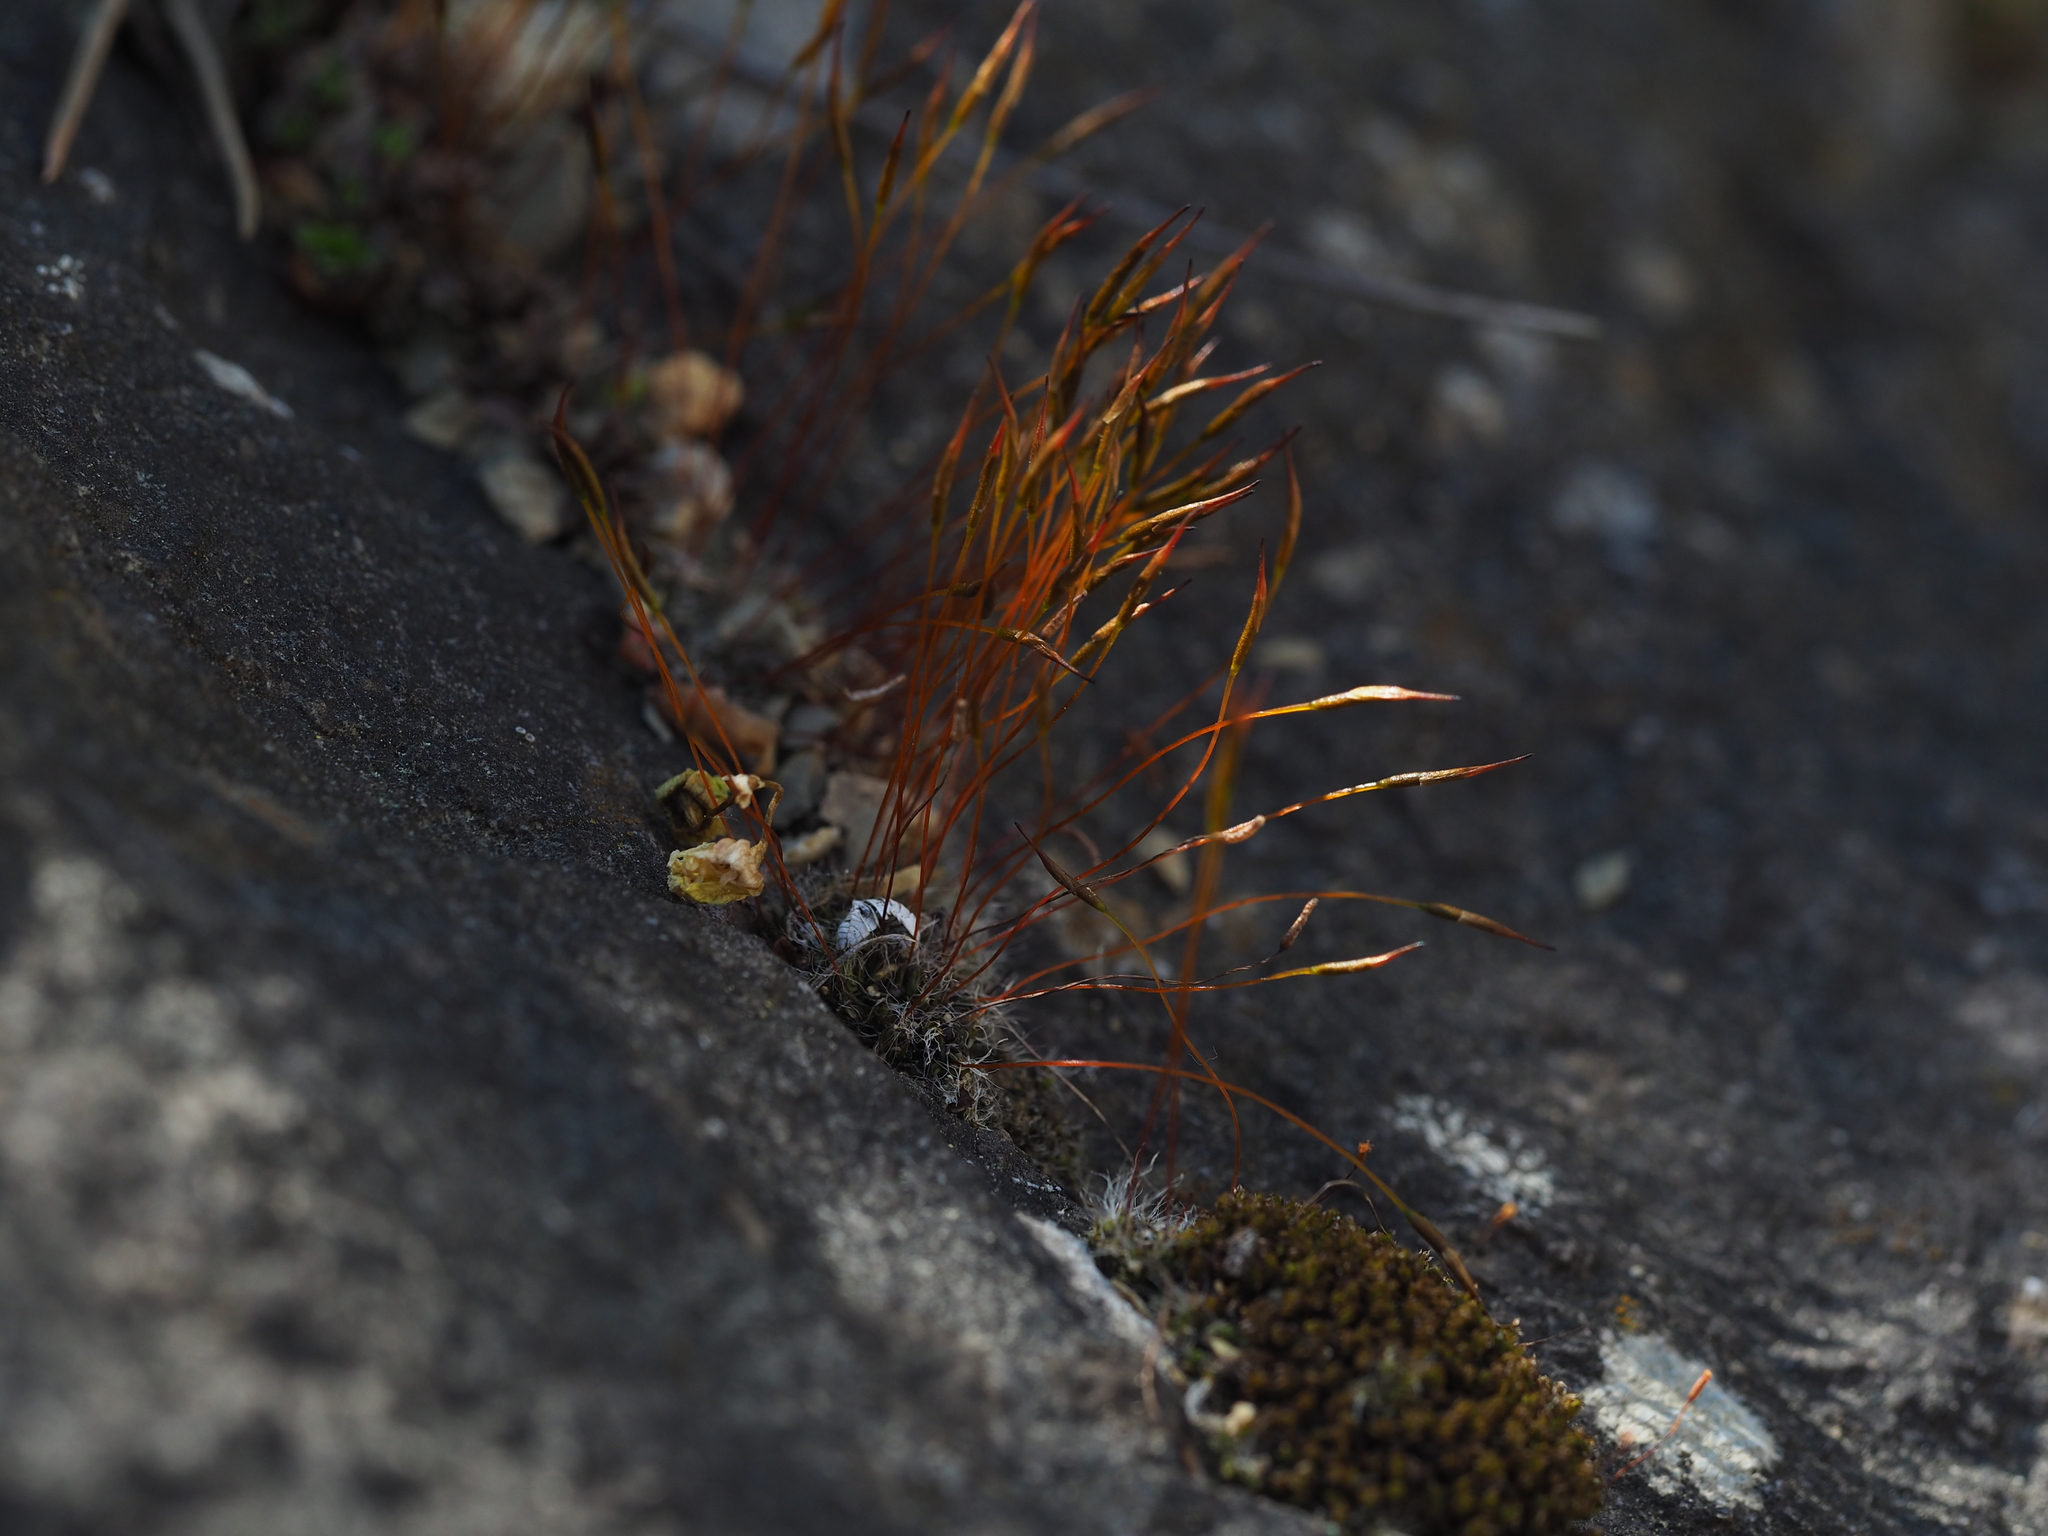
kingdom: Plantae
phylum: Bryophyta
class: Bryopsida
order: Pottiales
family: Pottiaceae
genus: Tortula
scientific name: Tortula muralis
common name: Wall screw-moss
